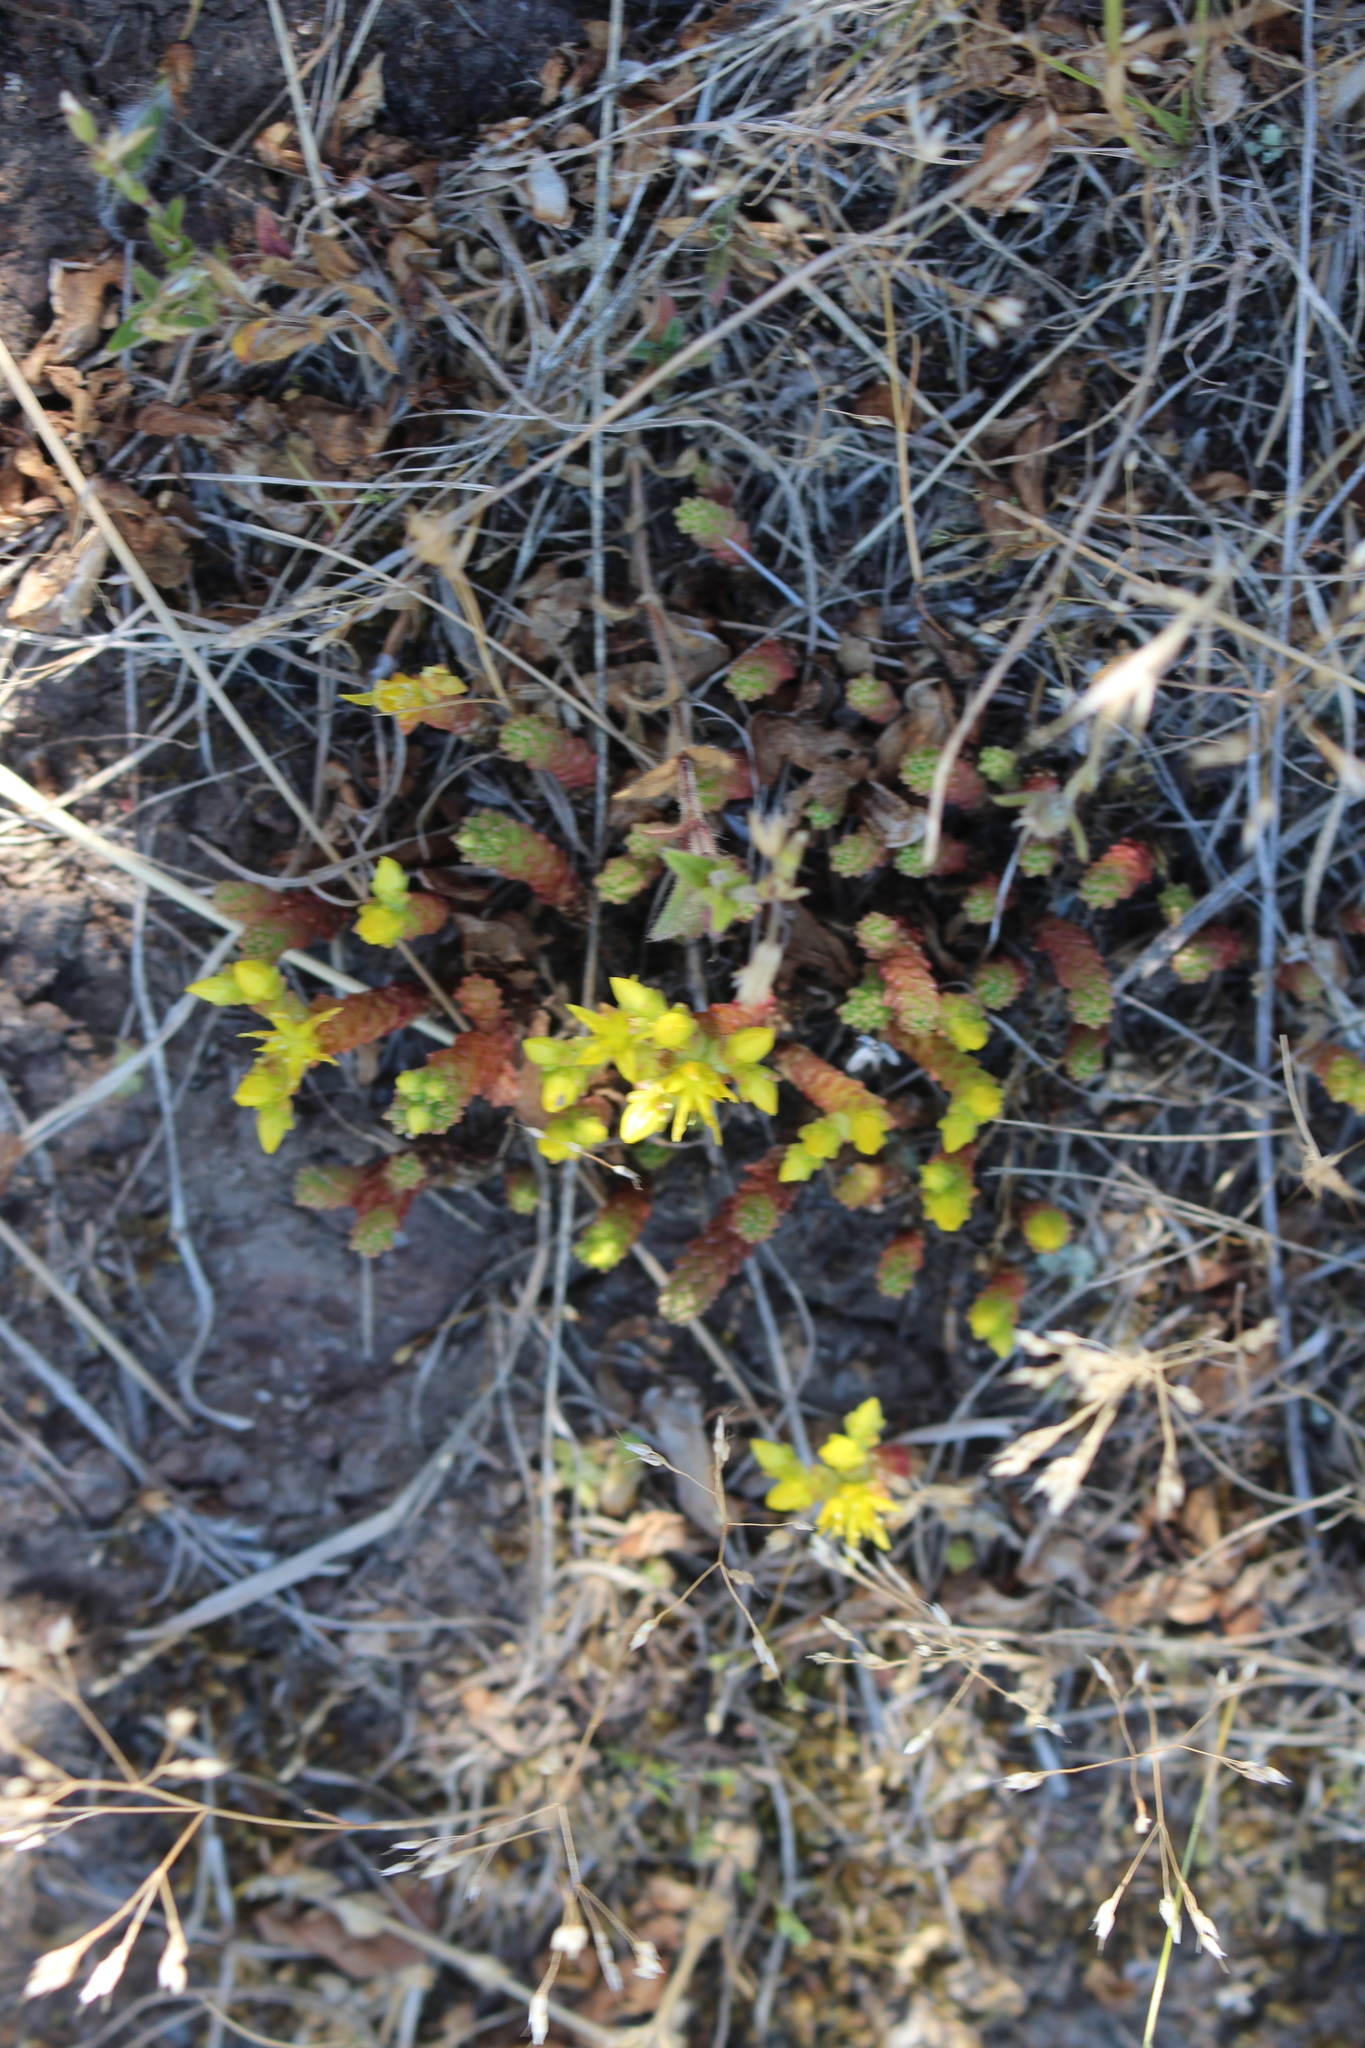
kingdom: Plantae
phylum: Tracheophyta
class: Magnoliopsida
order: Saxifragales
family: Crassulaceae
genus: Sedum
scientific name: Sedum acre
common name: Biting stonecrop
